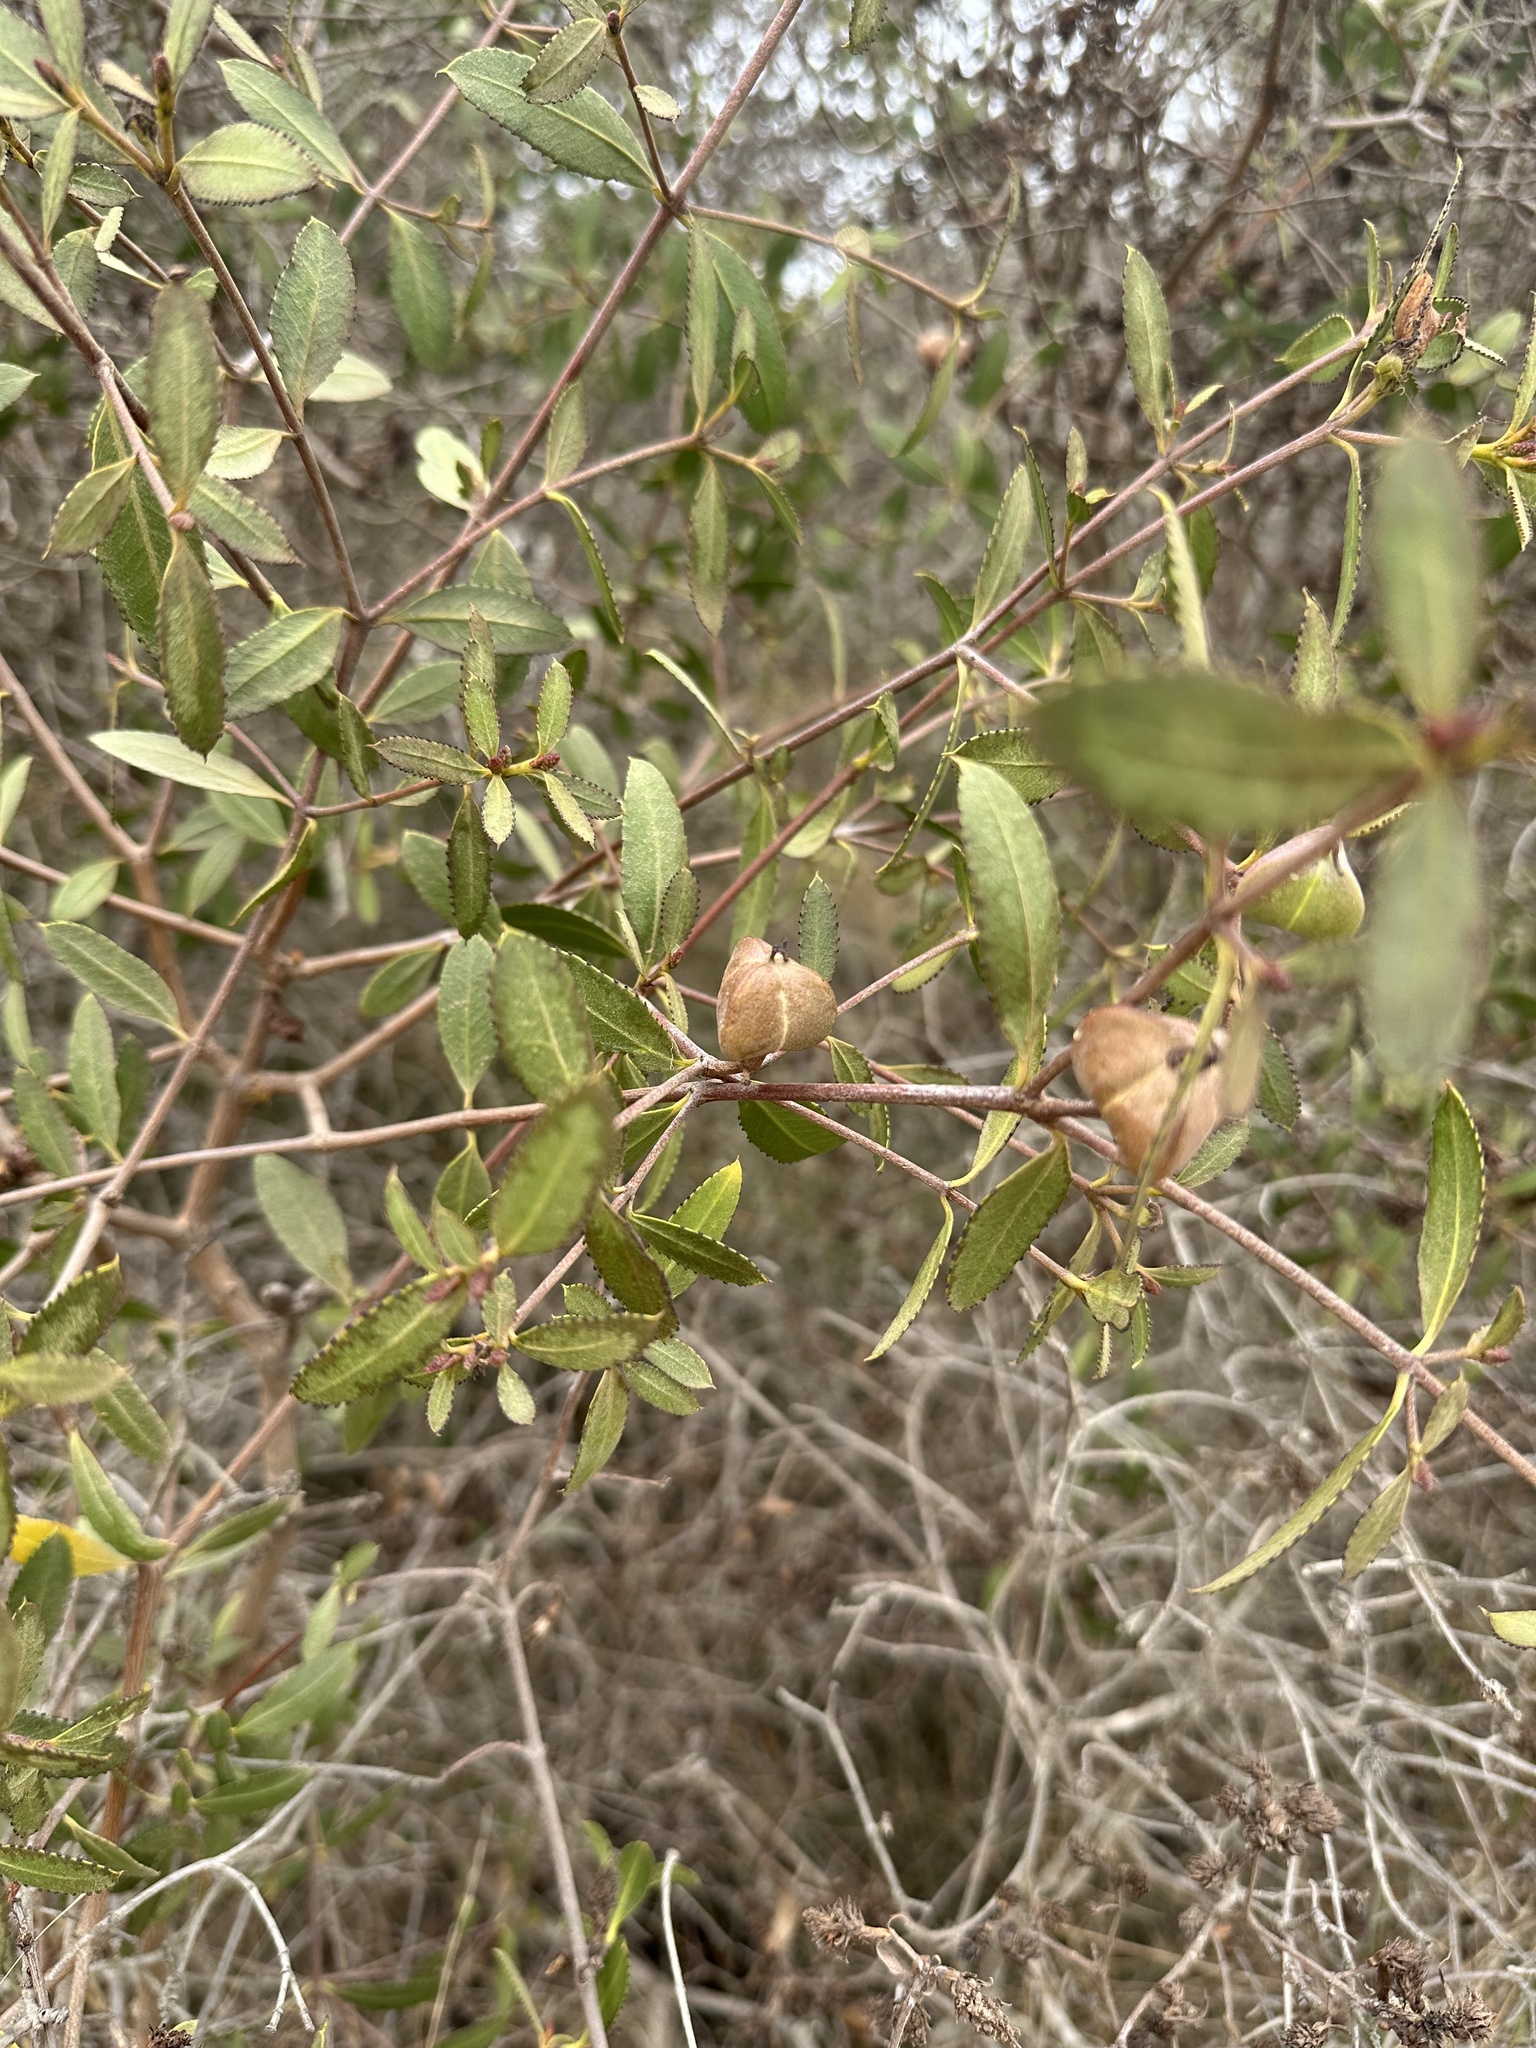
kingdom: Plantae
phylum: Tracheophyta
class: Magnoliopsida
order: Malpighiales
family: Euphorbiaceae
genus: Colliguaja
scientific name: Colliguaja odorifera
